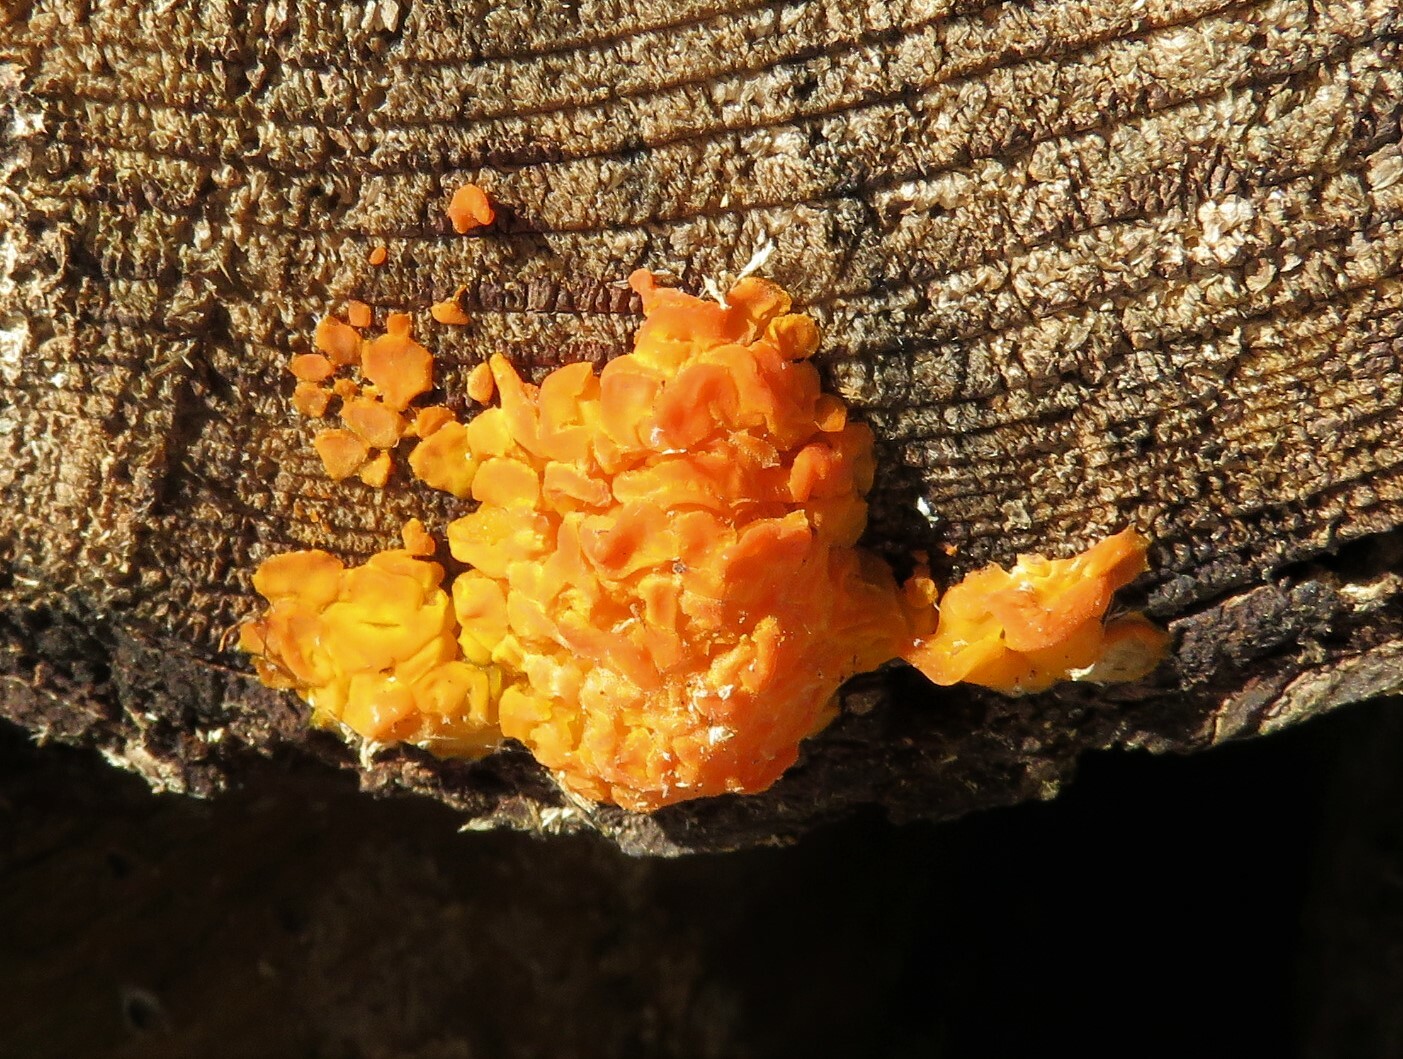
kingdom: Fungi
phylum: Basidiomycota
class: Dacrymycetes
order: Dacrymycetales
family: Dacrymycetaceae
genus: Dacrymyces
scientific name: Dacrymyces chrysospermus
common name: Orange jelly spot
